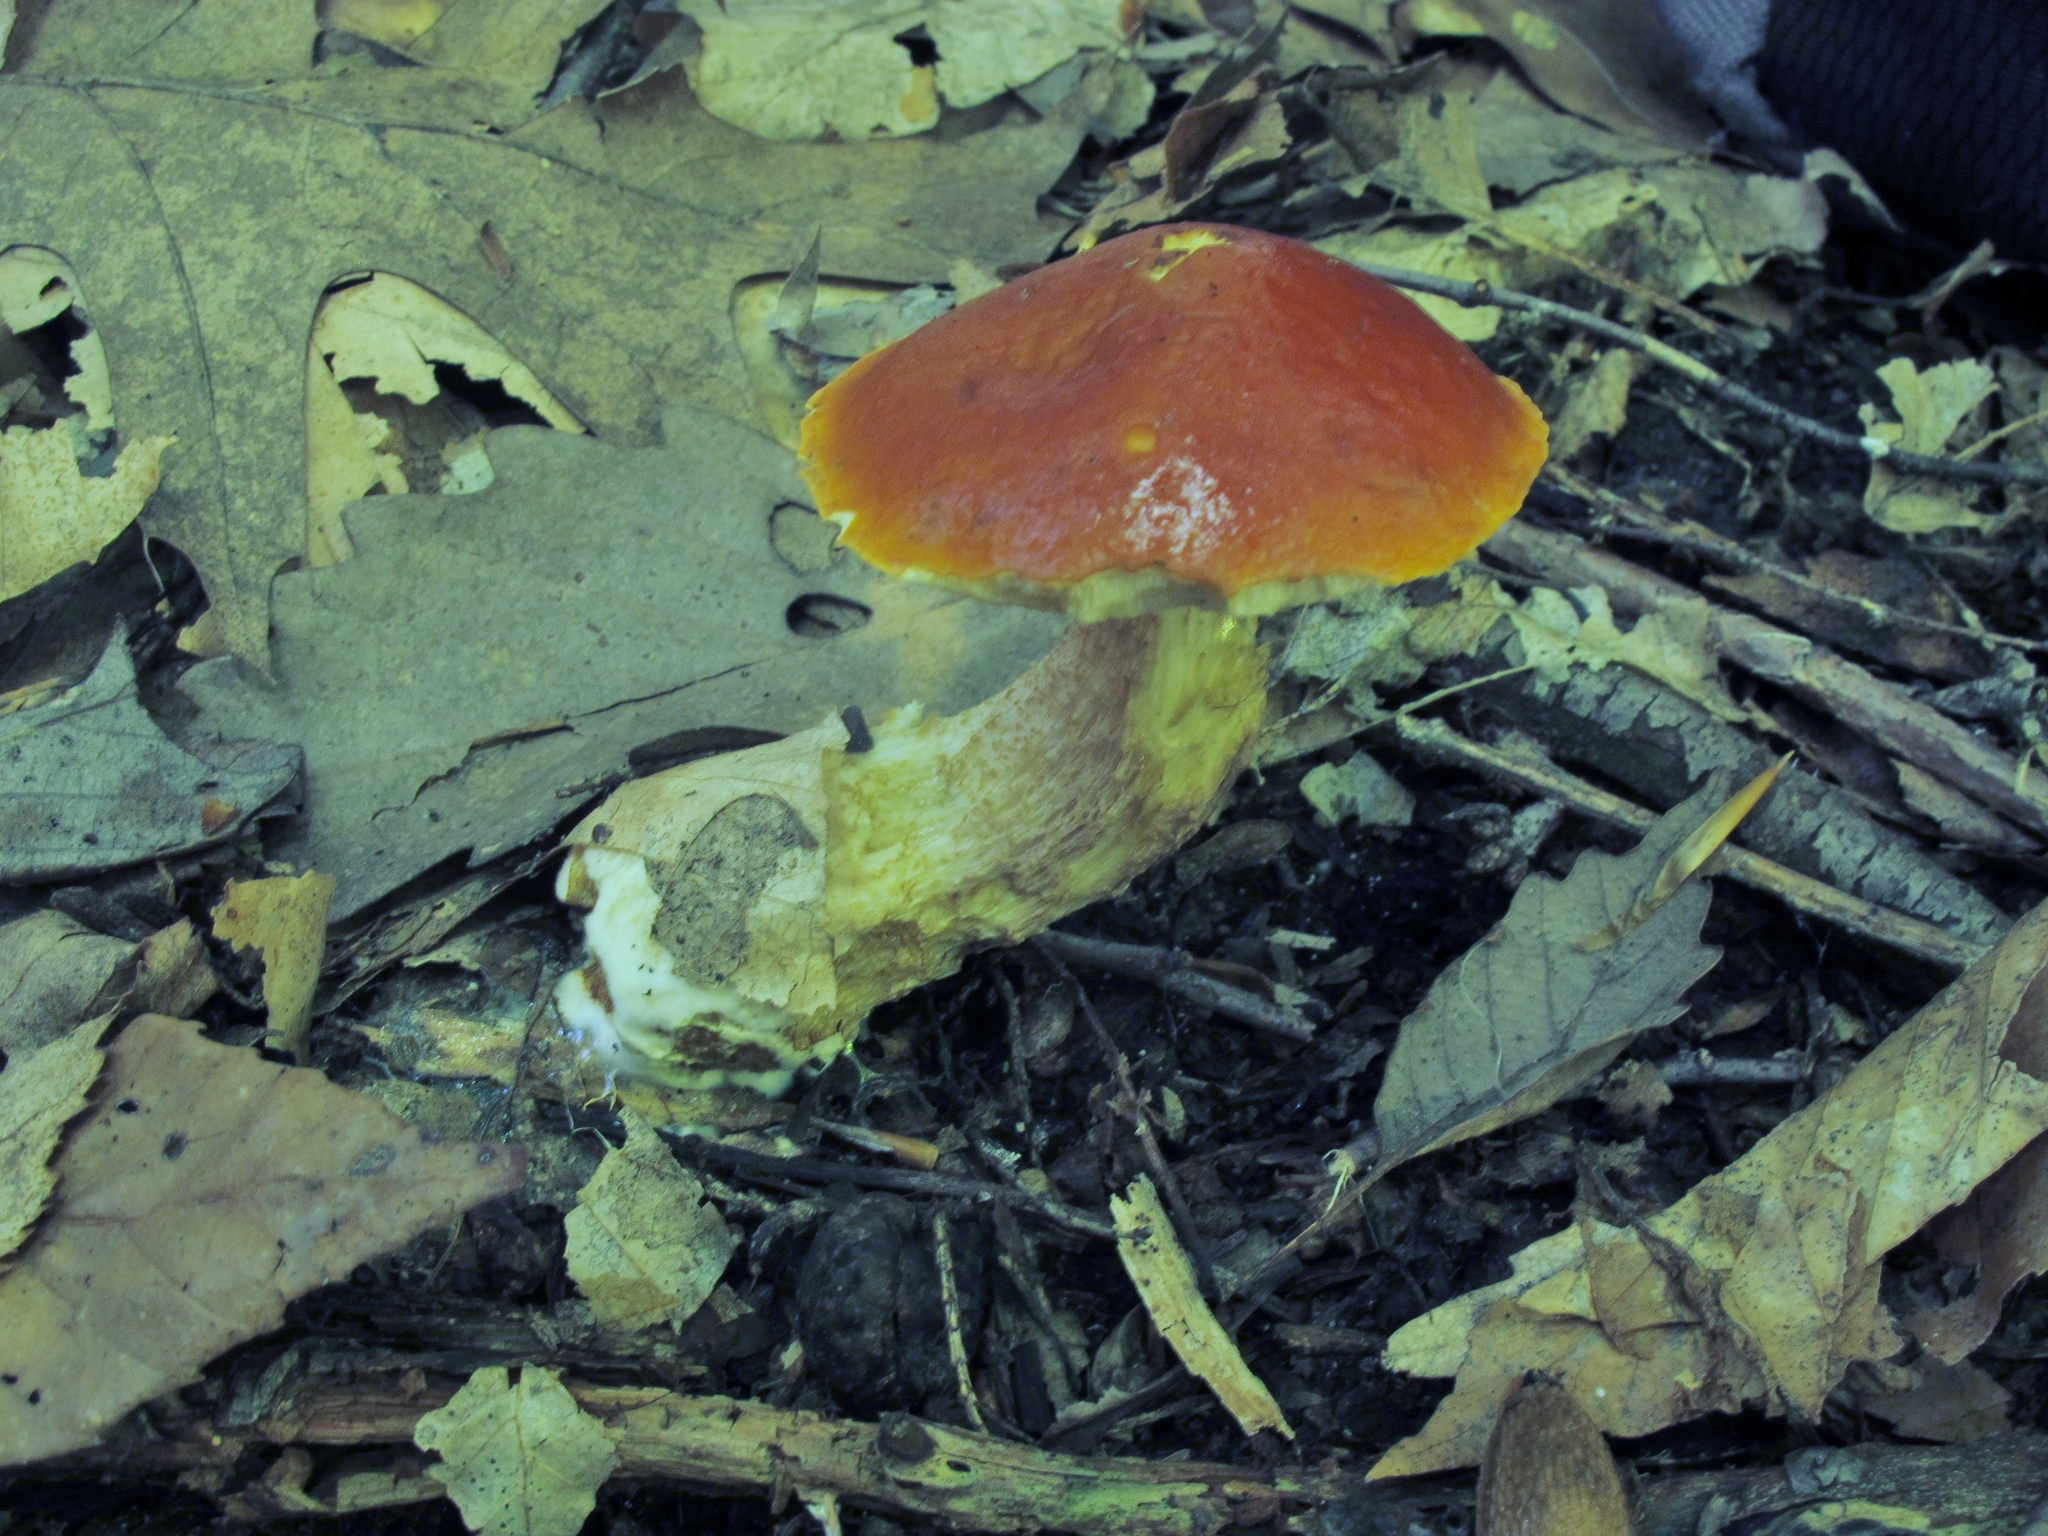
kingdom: Fungi
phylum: Basidiomycota
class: Agaricomycetes
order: Boletales
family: Boletaceae
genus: Leccinum
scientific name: Leccinum longicurvipes
